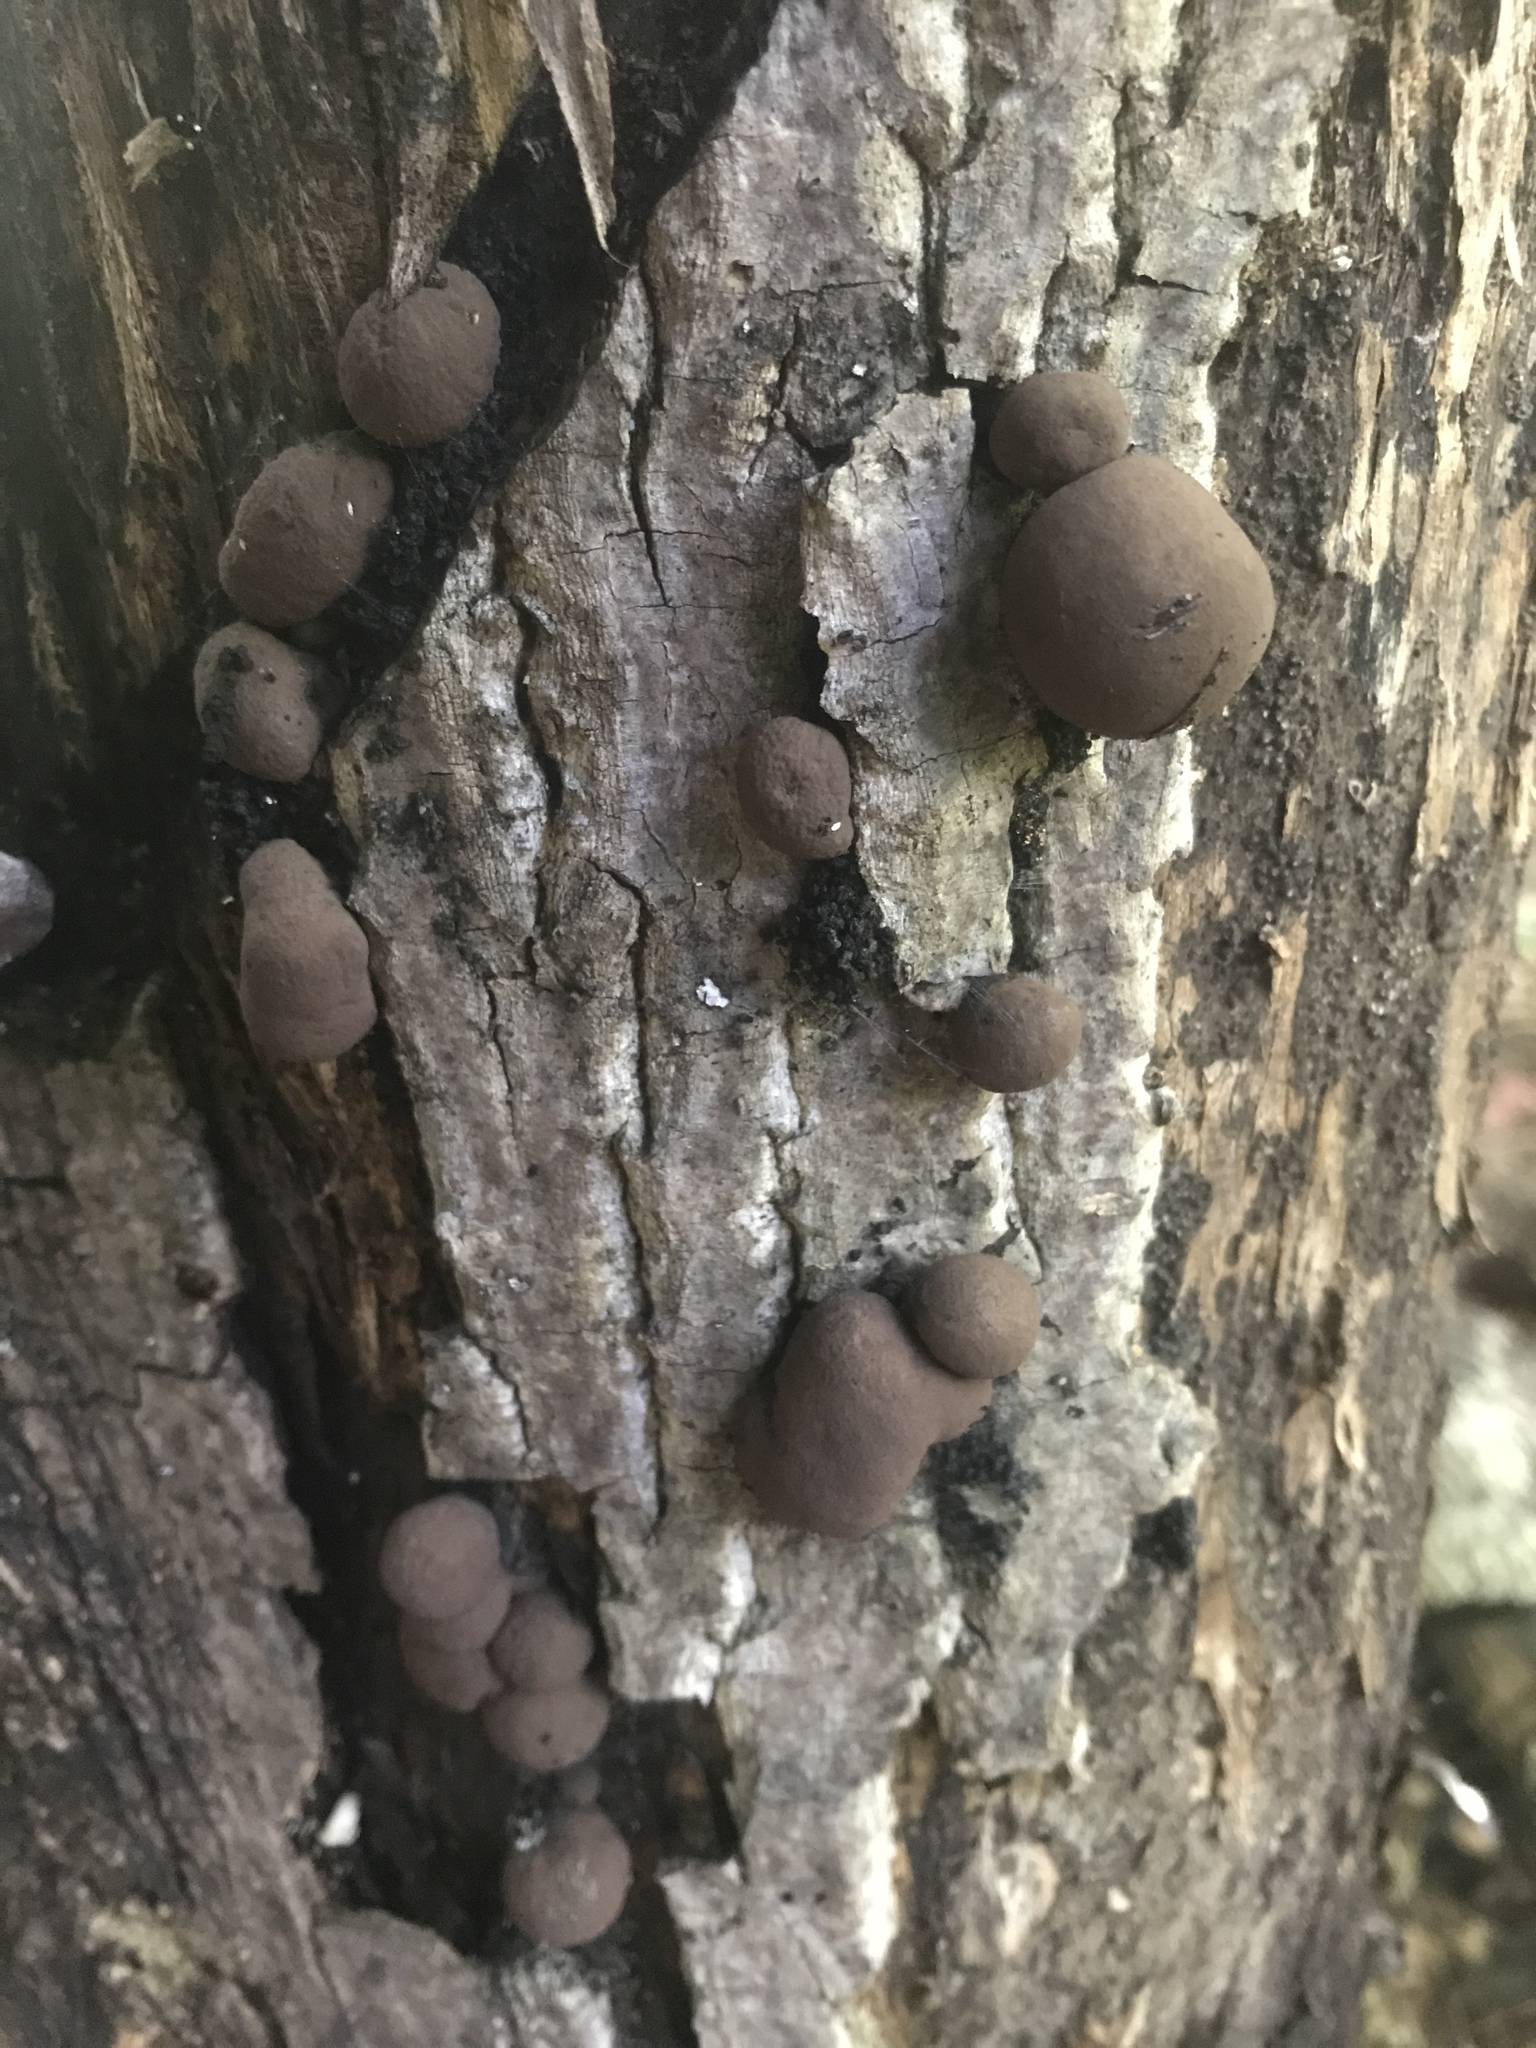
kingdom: Fungi
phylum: Ascomycota
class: Sordariomycetes
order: Xylariales
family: Hypoxylaceae
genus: Daldinia
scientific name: Daldinia childiae
